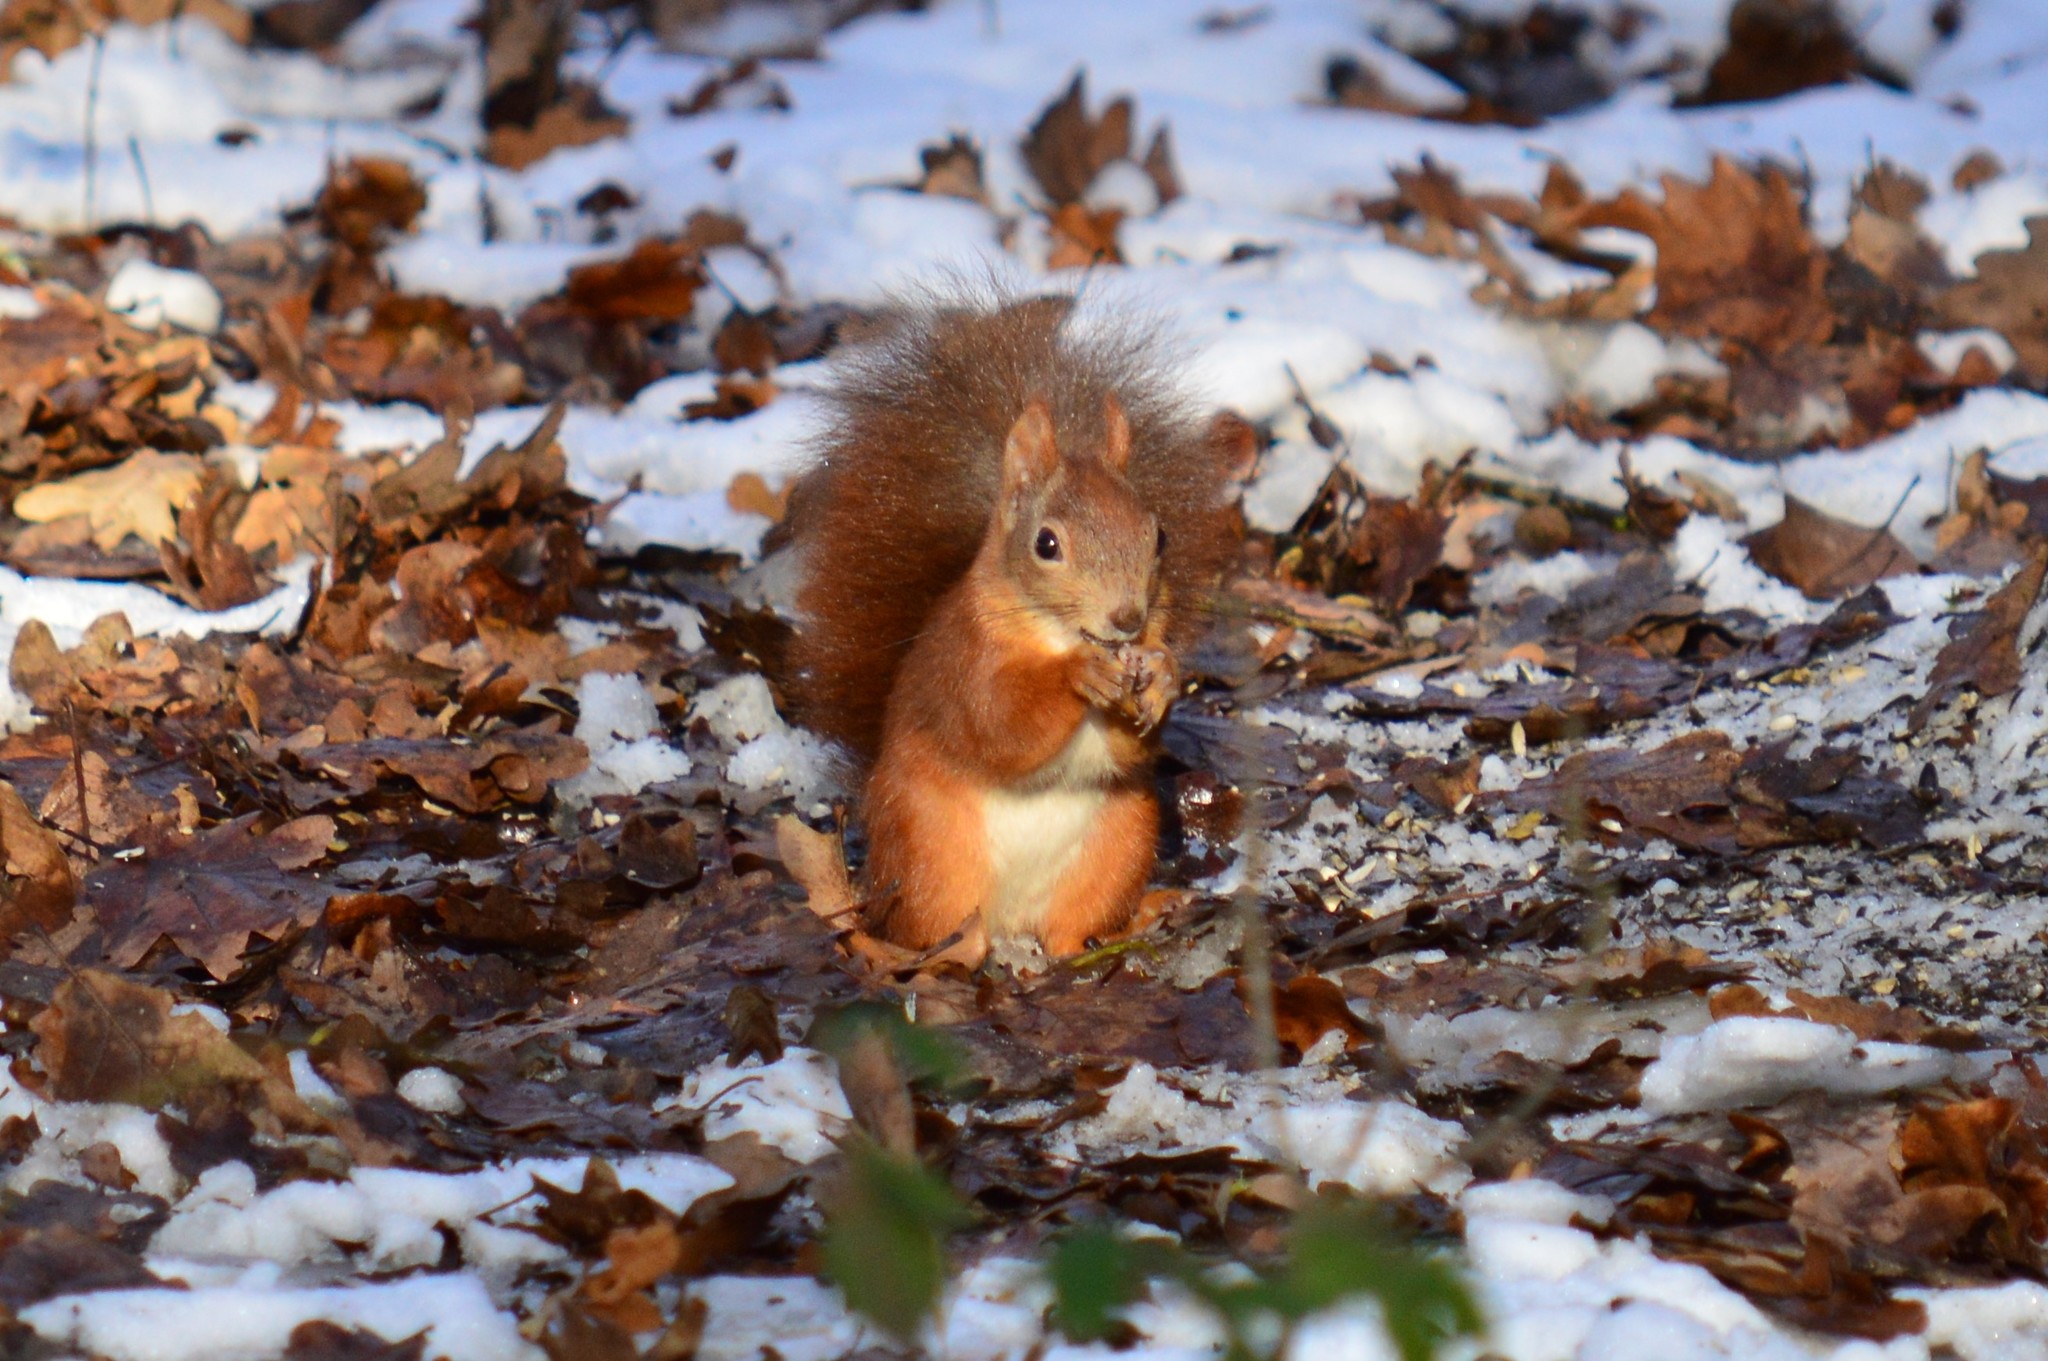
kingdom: Animalia
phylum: Chordata
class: Mammalia
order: Rodentia
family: Sciuridae
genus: Sciurus
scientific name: Sciurus vulgaris
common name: Eurasian red squirrel
